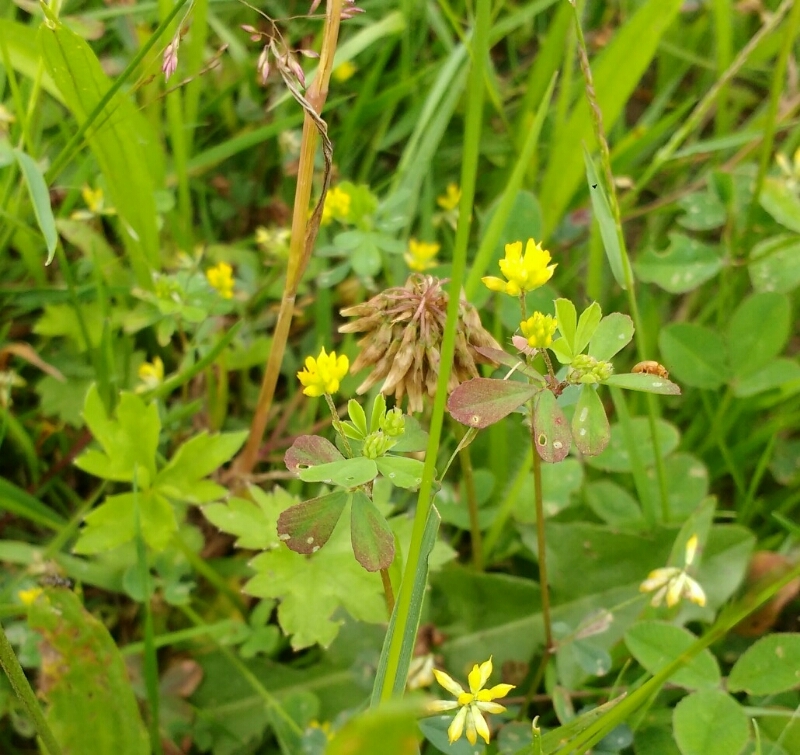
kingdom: Plantae
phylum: Tracheophyta
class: Magnoliopsida
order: Fabales
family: Fabaceae
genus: Trifolium
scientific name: Trifolium dubium
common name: Suckling clover
